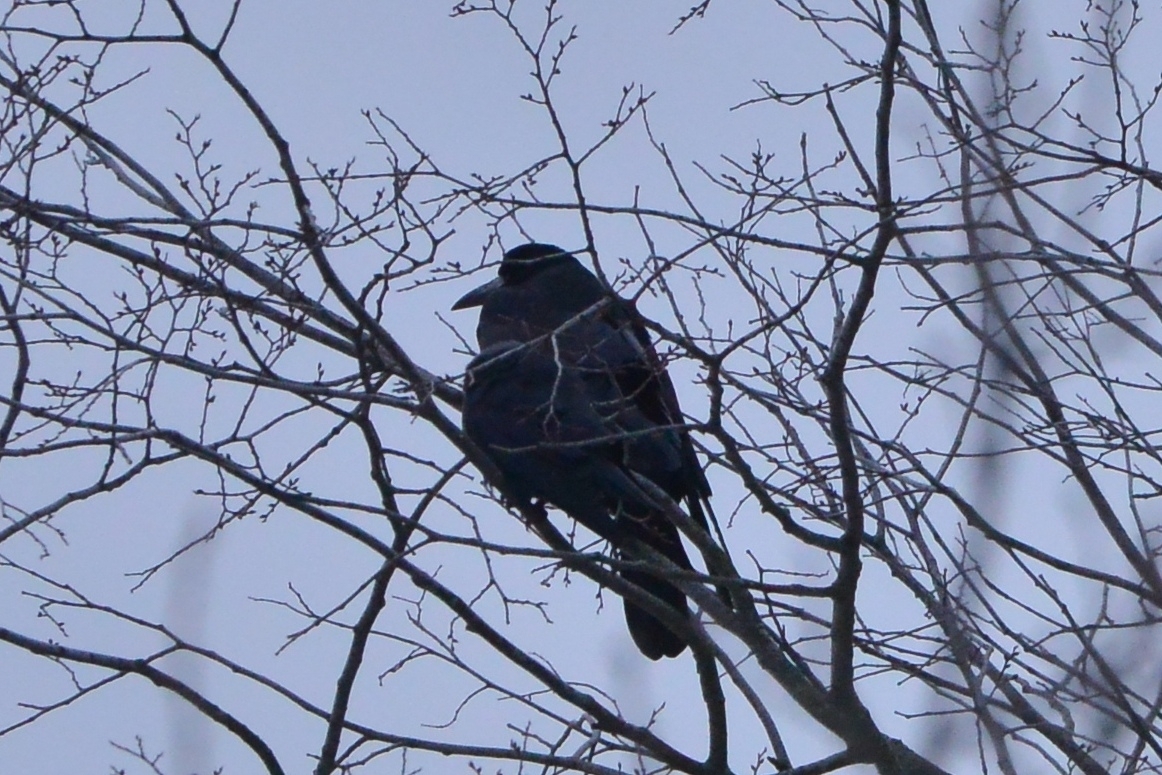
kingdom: Animalia
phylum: Chordata
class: Aves
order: Passeriformes
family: Corvidae
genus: Corvus
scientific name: Corvus frugilegus
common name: Rook
